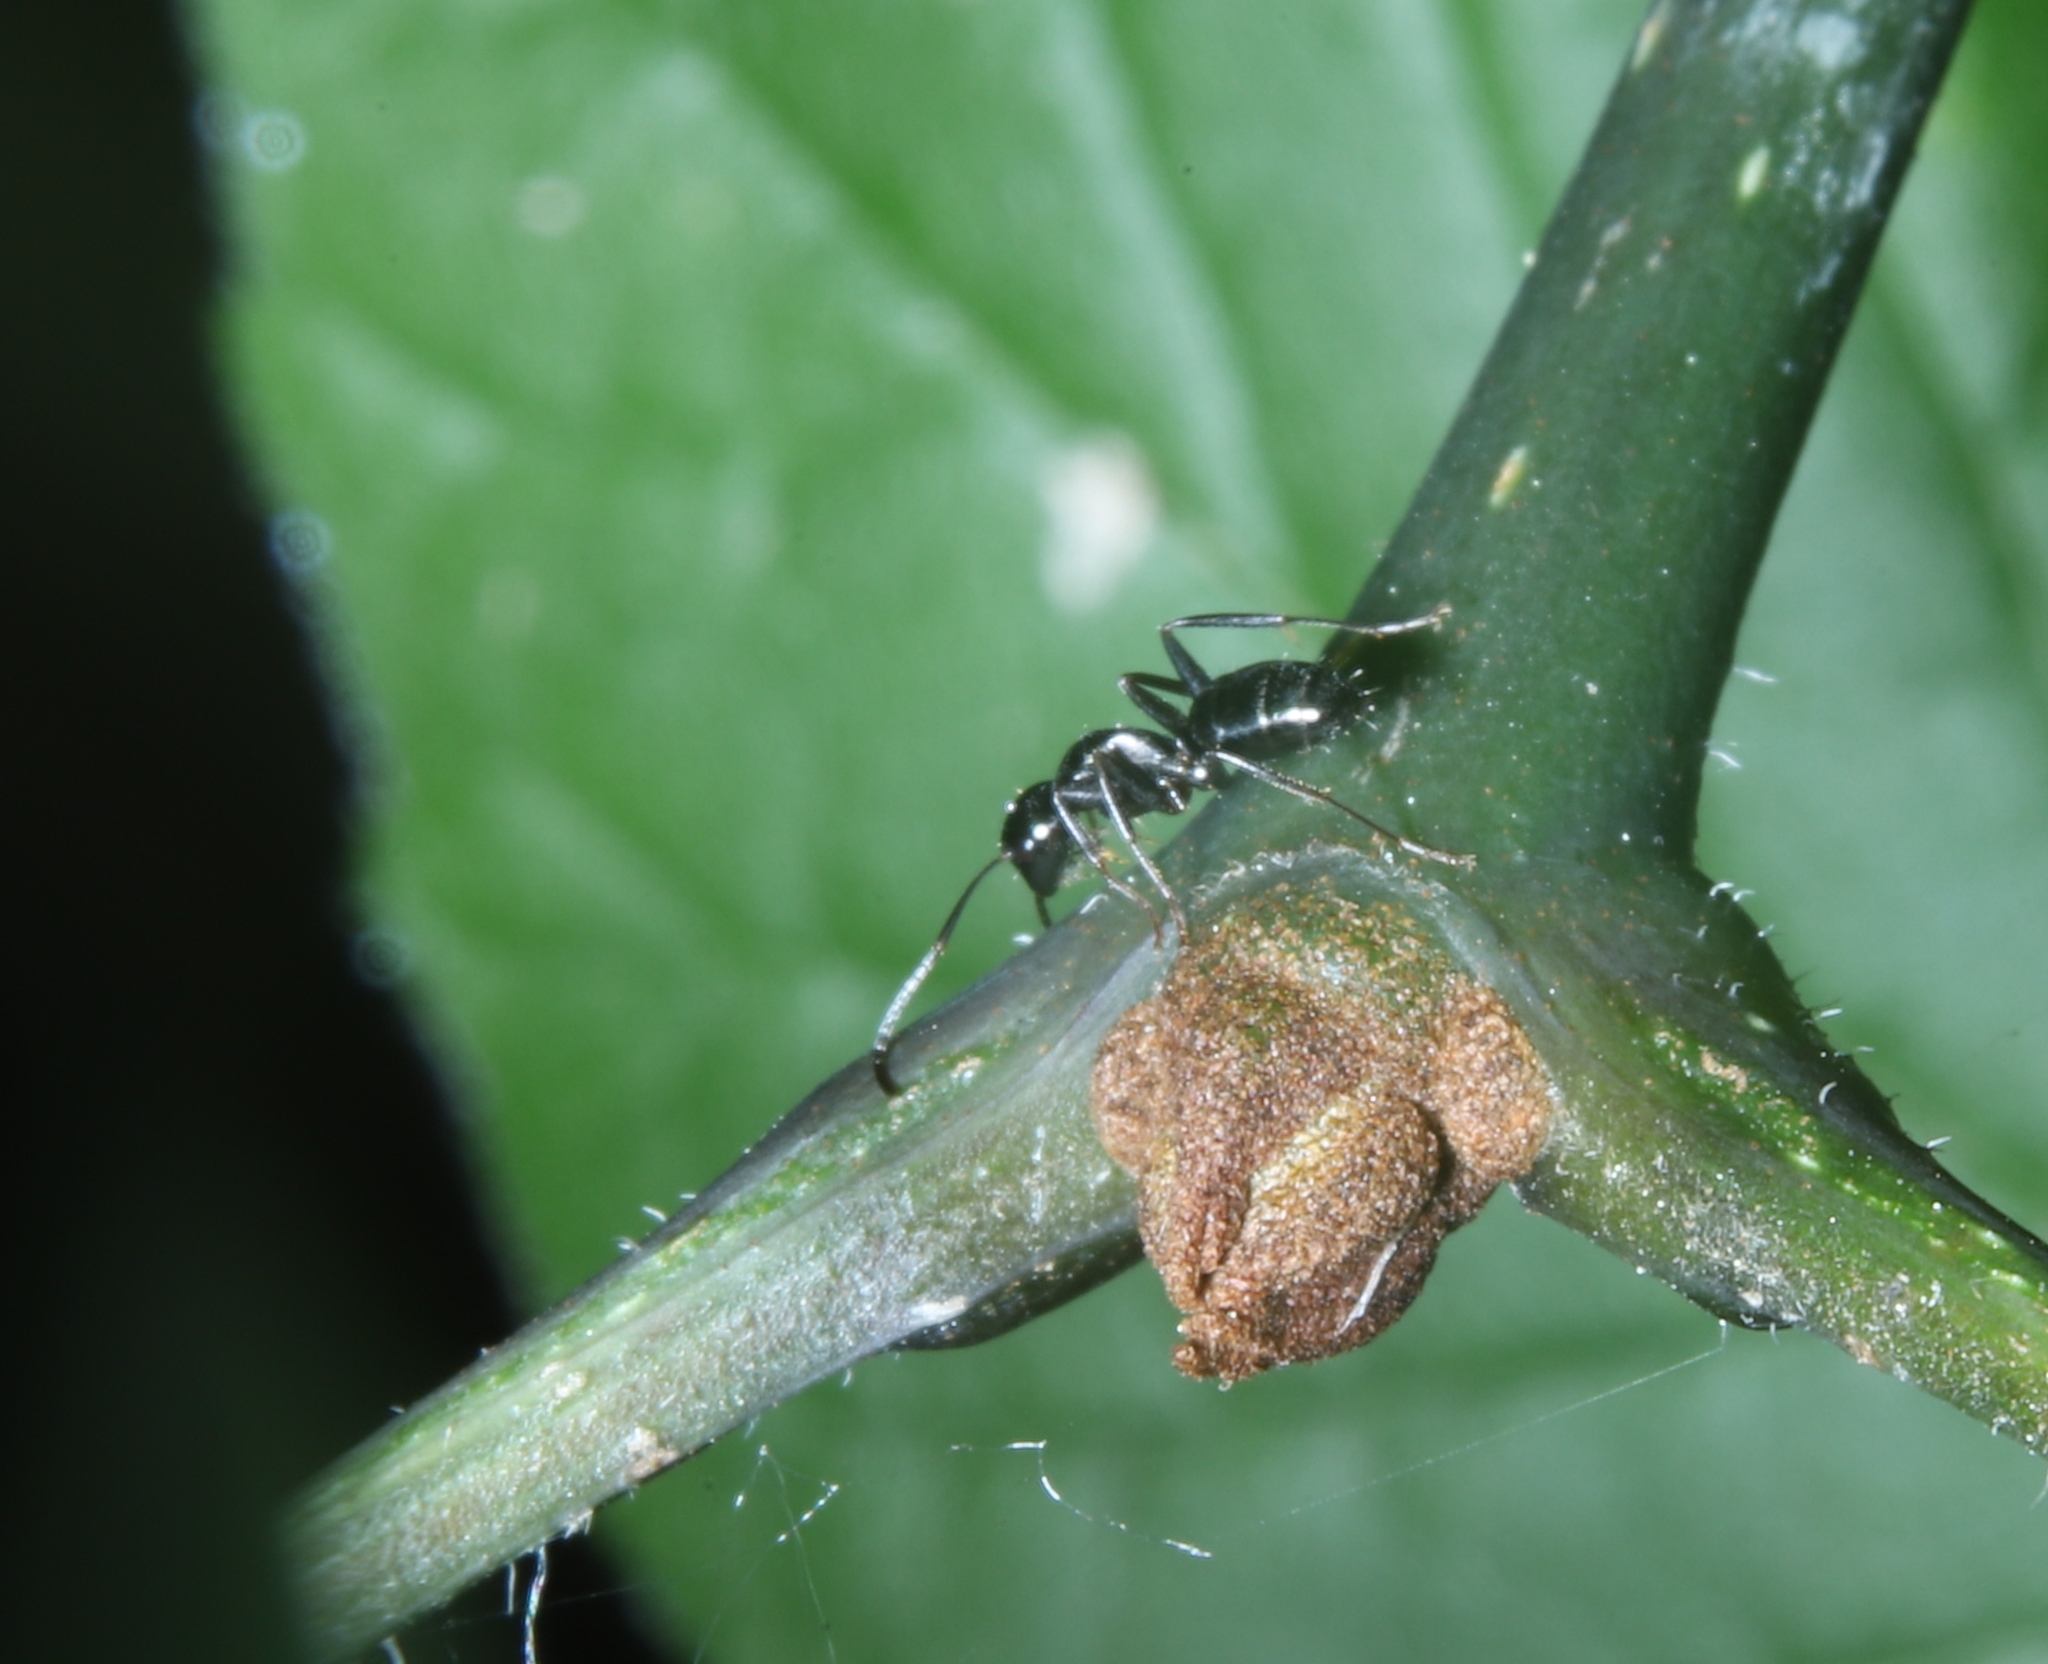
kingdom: Animalia
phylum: Arthropoda
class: Insecta
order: Hymenoptera
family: Formicidae
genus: Camponotus
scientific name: Camponotus nearcticus
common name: Smaller carpenter ant
